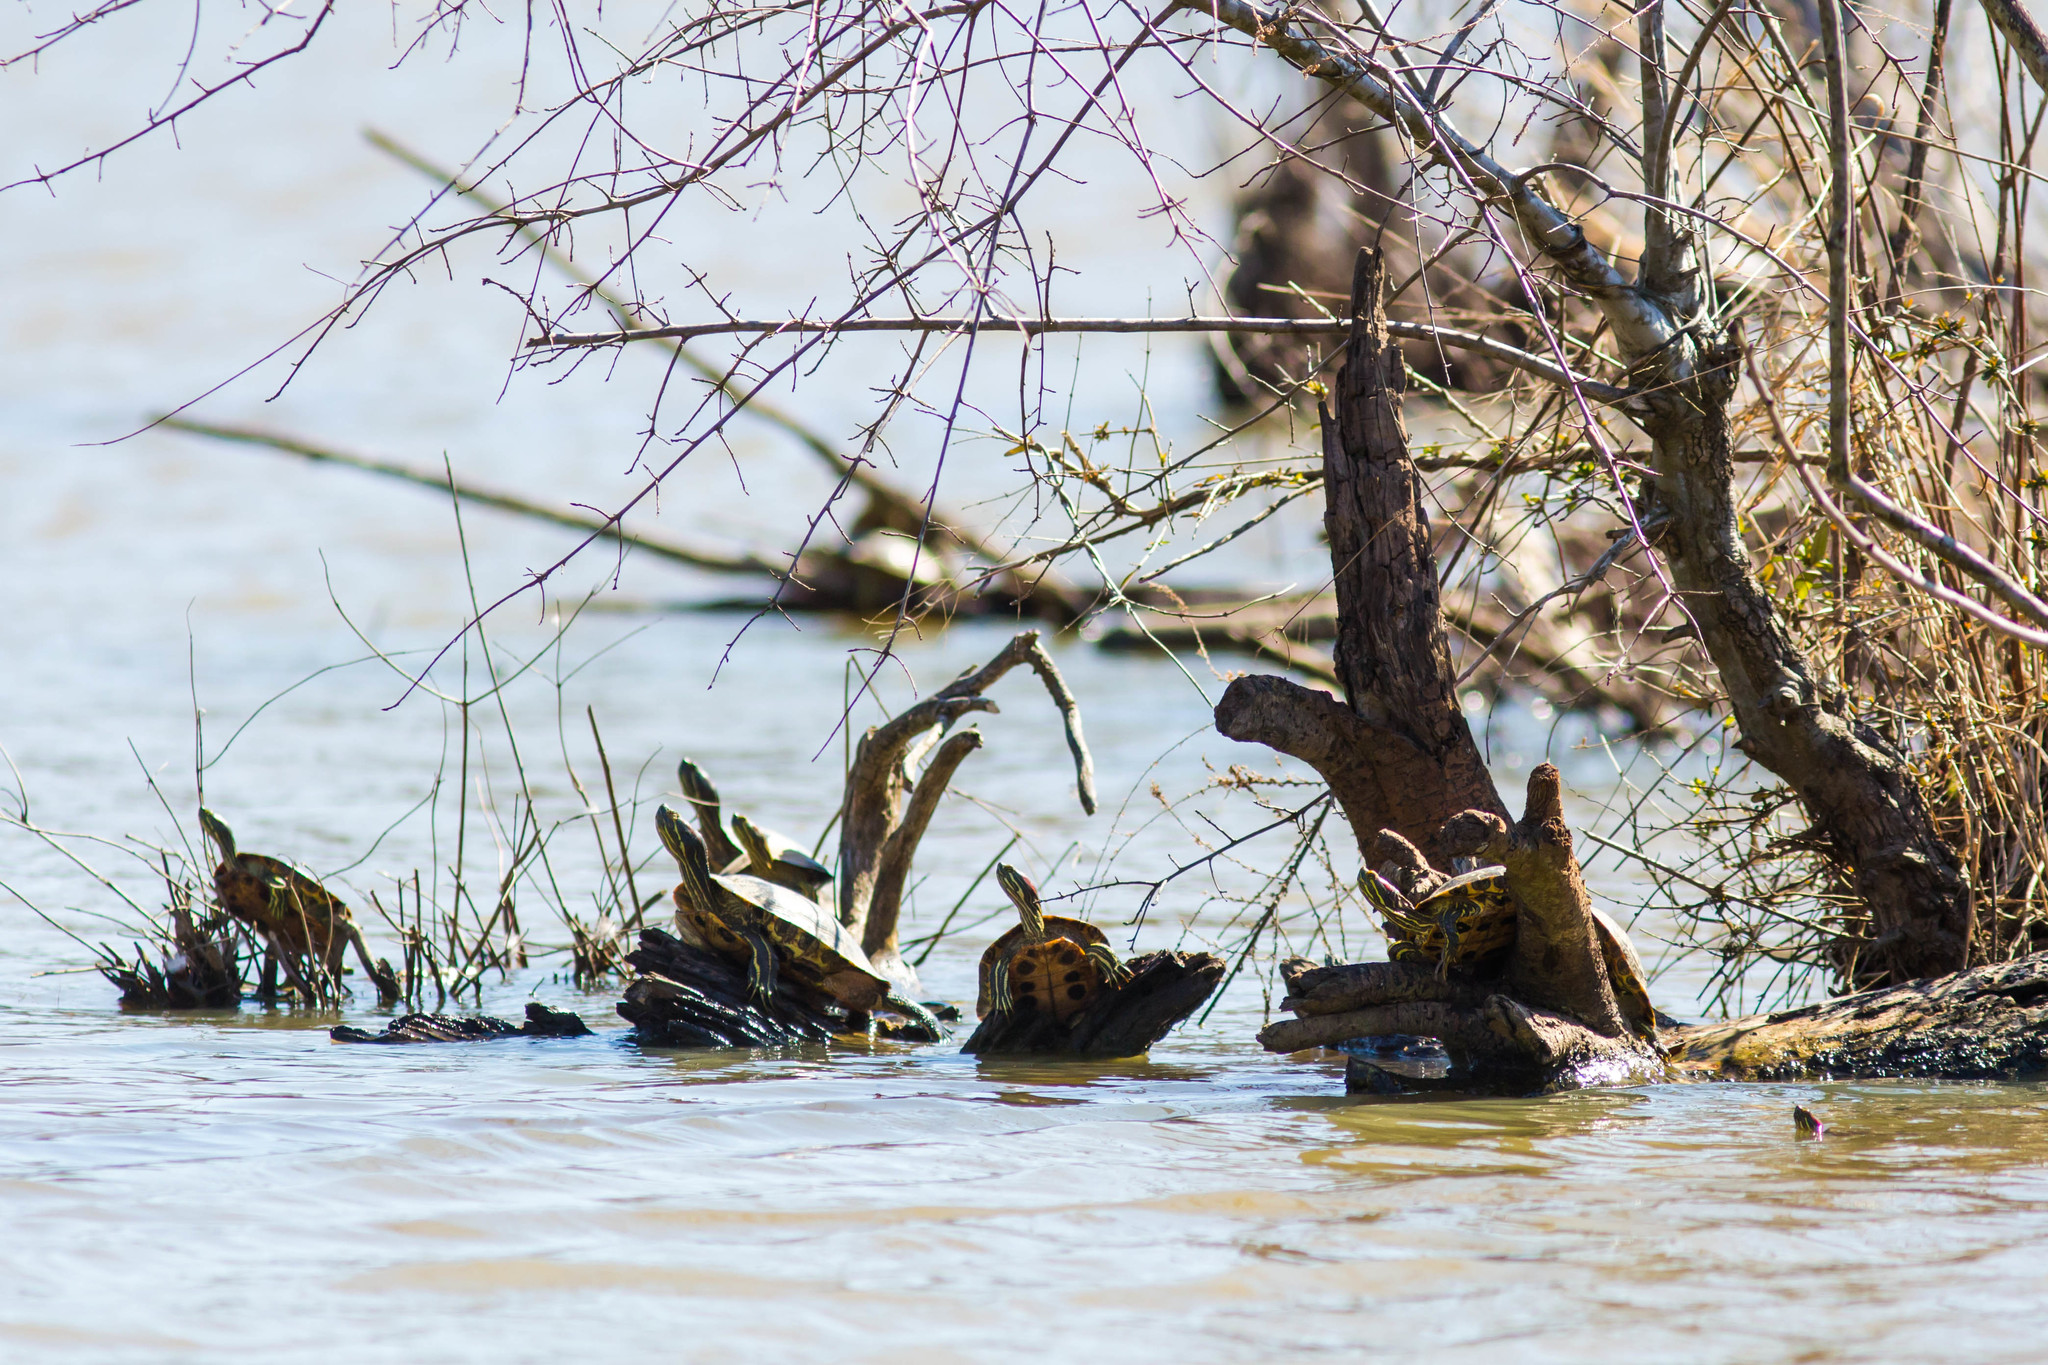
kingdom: Animalia
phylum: Chordata
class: Testudines
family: Emydidae
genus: Trachemys
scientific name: Trachemys scripta
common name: Slider
